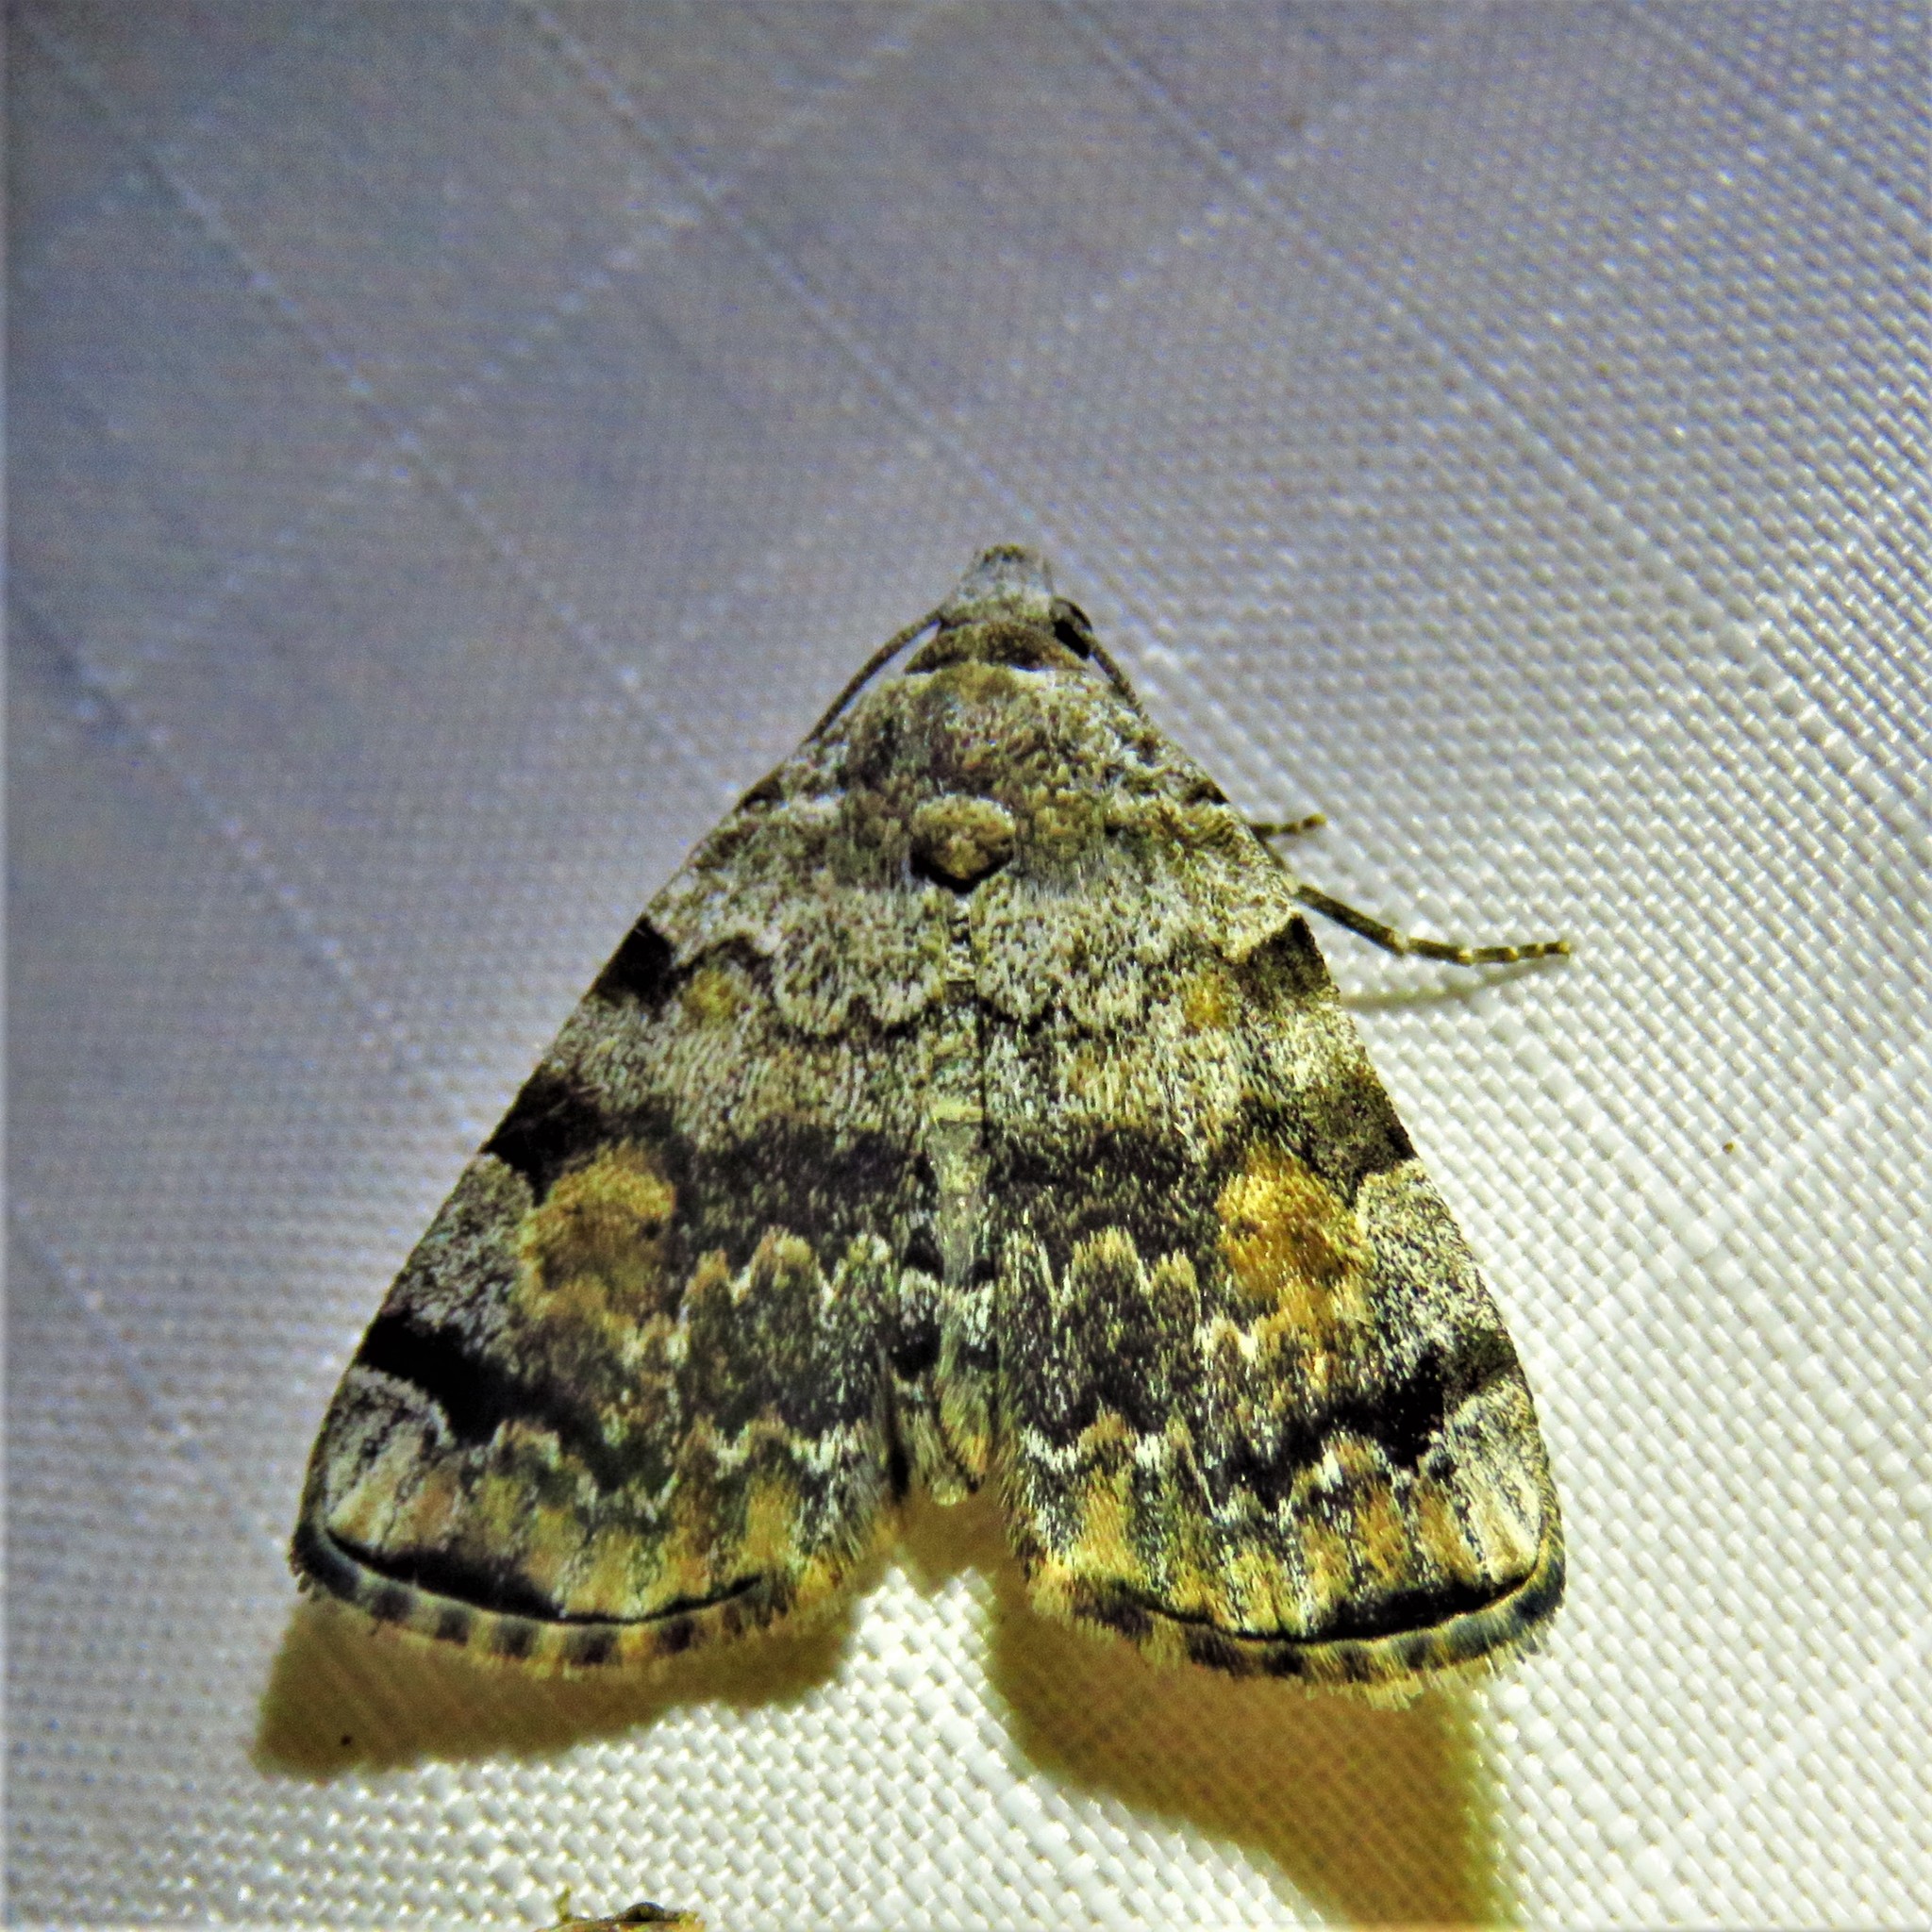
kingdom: Animalia
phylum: Arthropoda
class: Insecta
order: Lepidoptera
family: Erebidae
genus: Idia
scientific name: Idia americalis
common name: American idia moth
